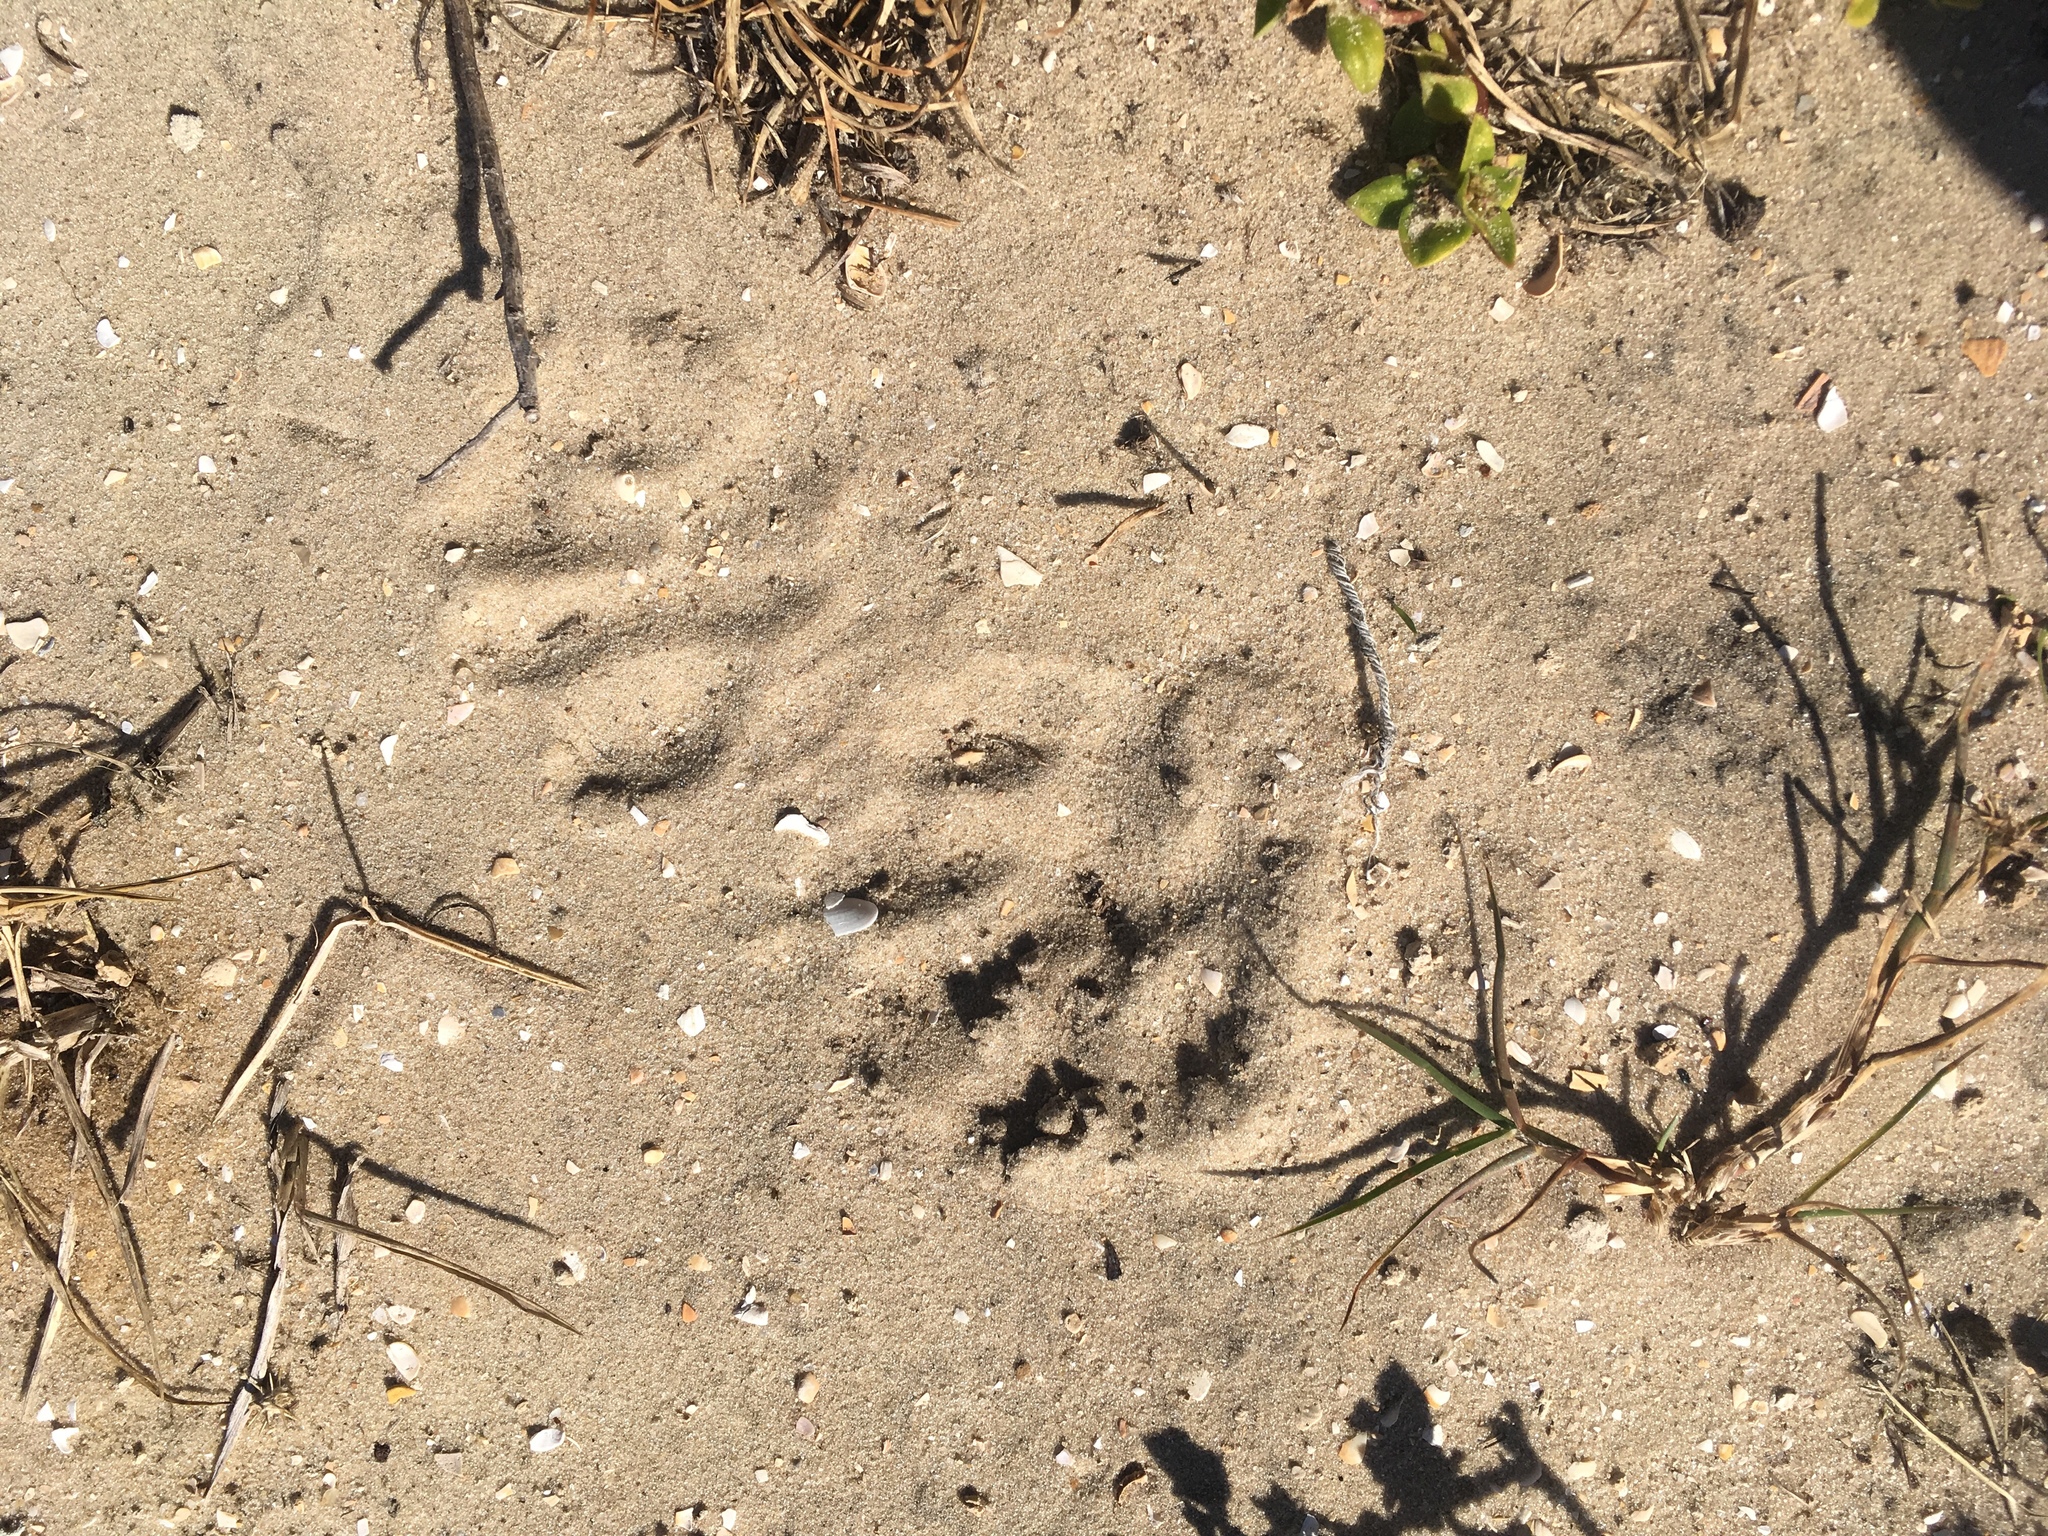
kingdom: Animalia
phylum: Chordata
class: Mammalia
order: Carnivora
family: Procyonidae
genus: Procyon
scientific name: Procyon lotor
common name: Raccoon
